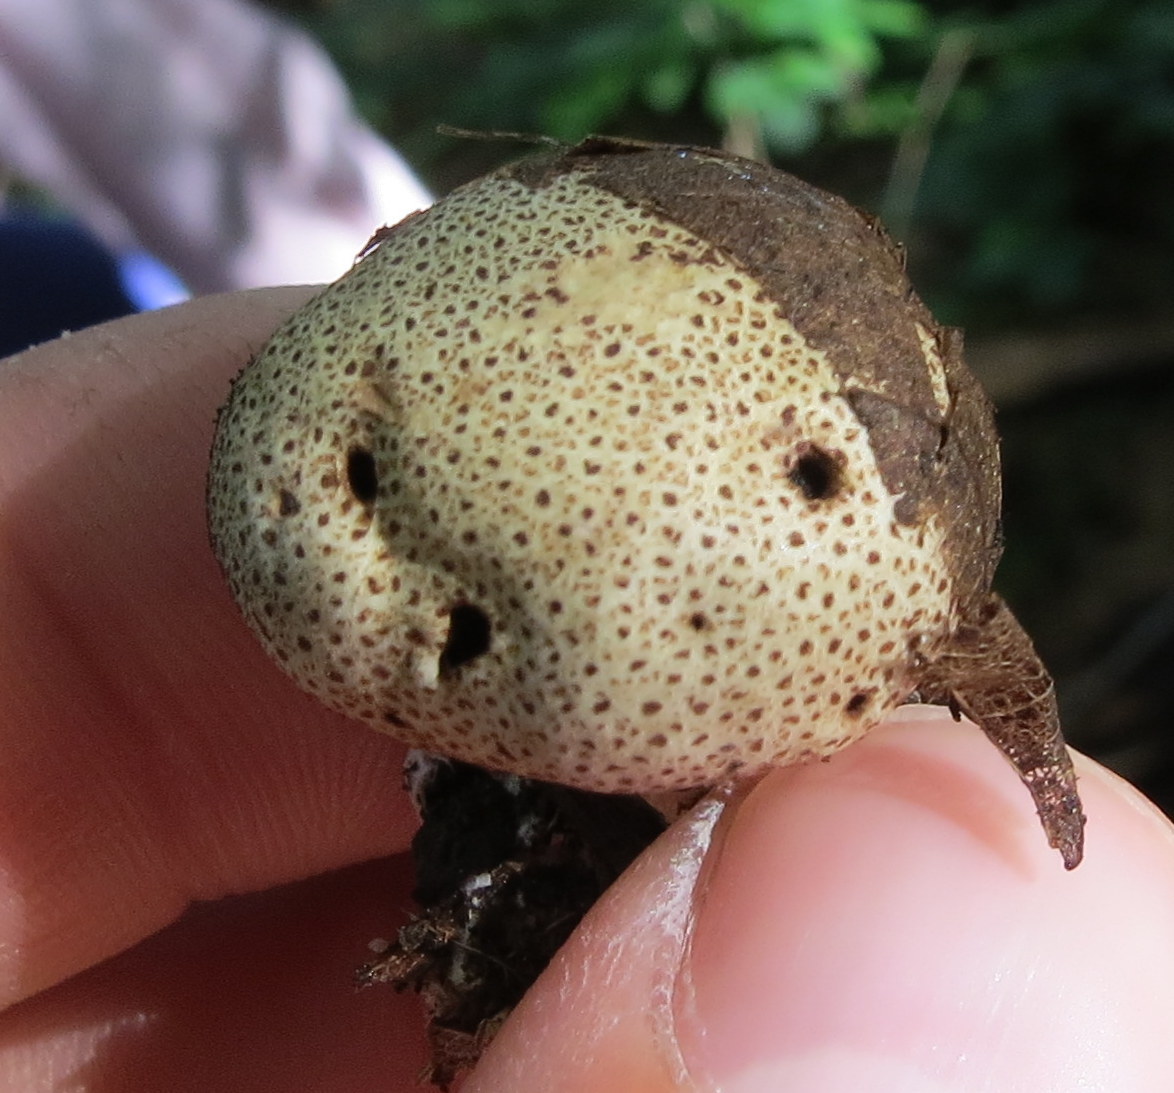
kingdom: Fungi
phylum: Basidiomycota
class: Agaricomycetes
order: Boletales
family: Sclerodermataceae
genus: Scleroderma
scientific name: Scleroderma citrinum
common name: Common earthball
